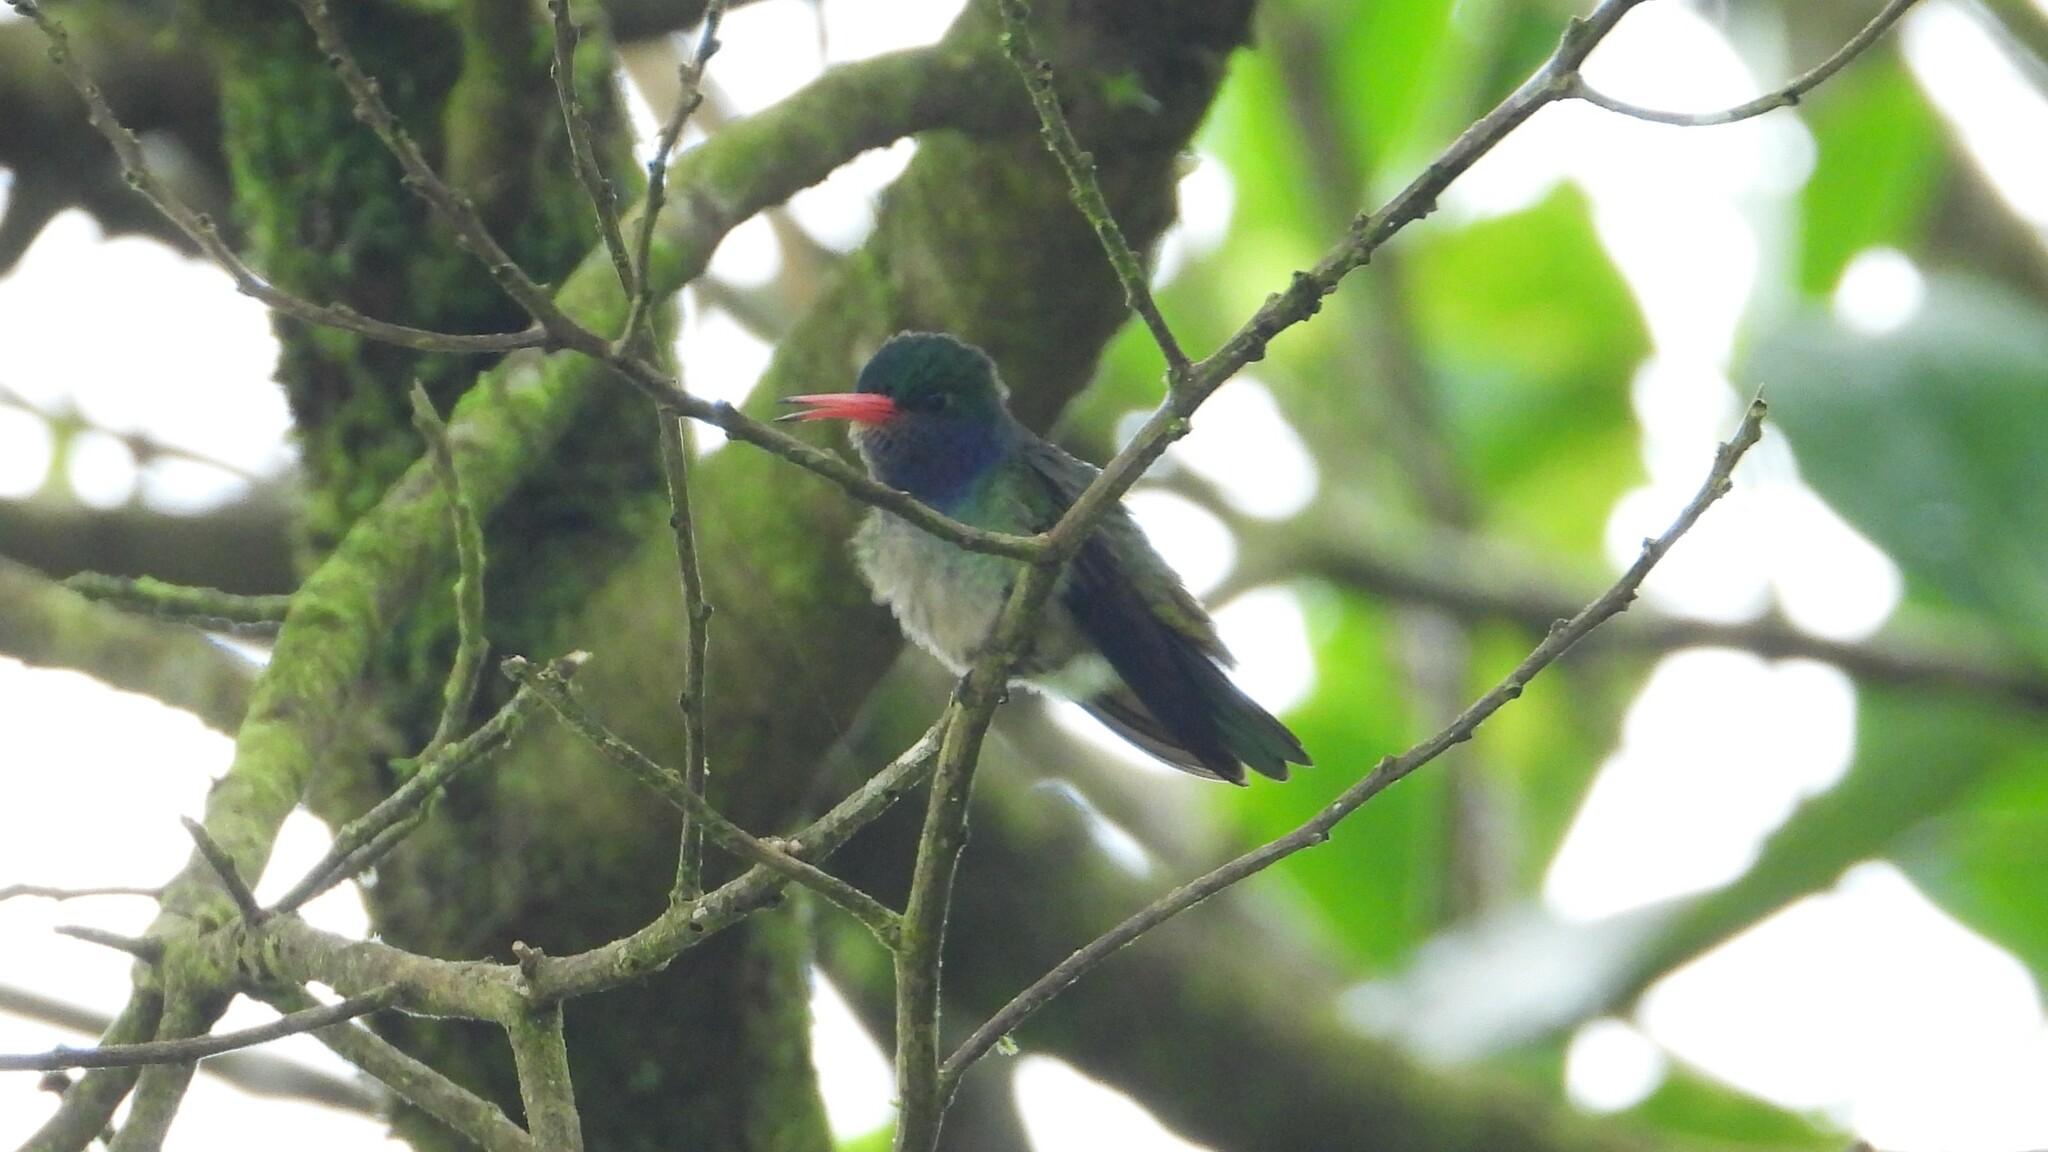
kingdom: Animalia
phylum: Chordata
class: Aves
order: Apodiformes
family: Trochilidae
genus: Chlorestes
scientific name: Chlorestes eliciae
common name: Blue-throated sapphire
